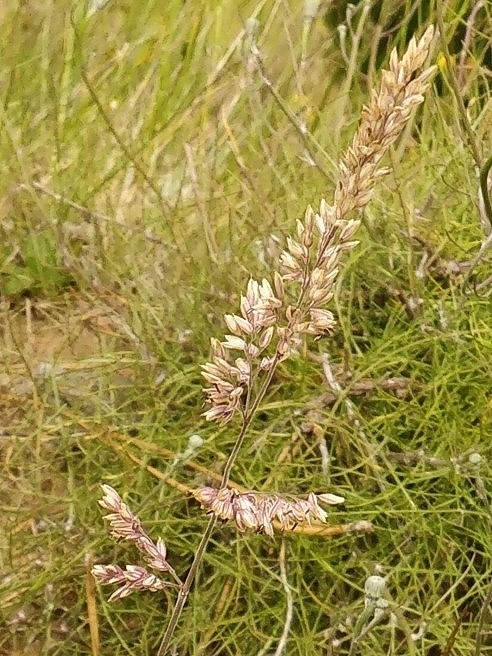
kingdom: Plantae
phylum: Tracheophyta
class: Liliopsida
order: Poales
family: Poaceae
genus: Holcus
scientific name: Holcus lanatus
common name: Yorkshire-fog
